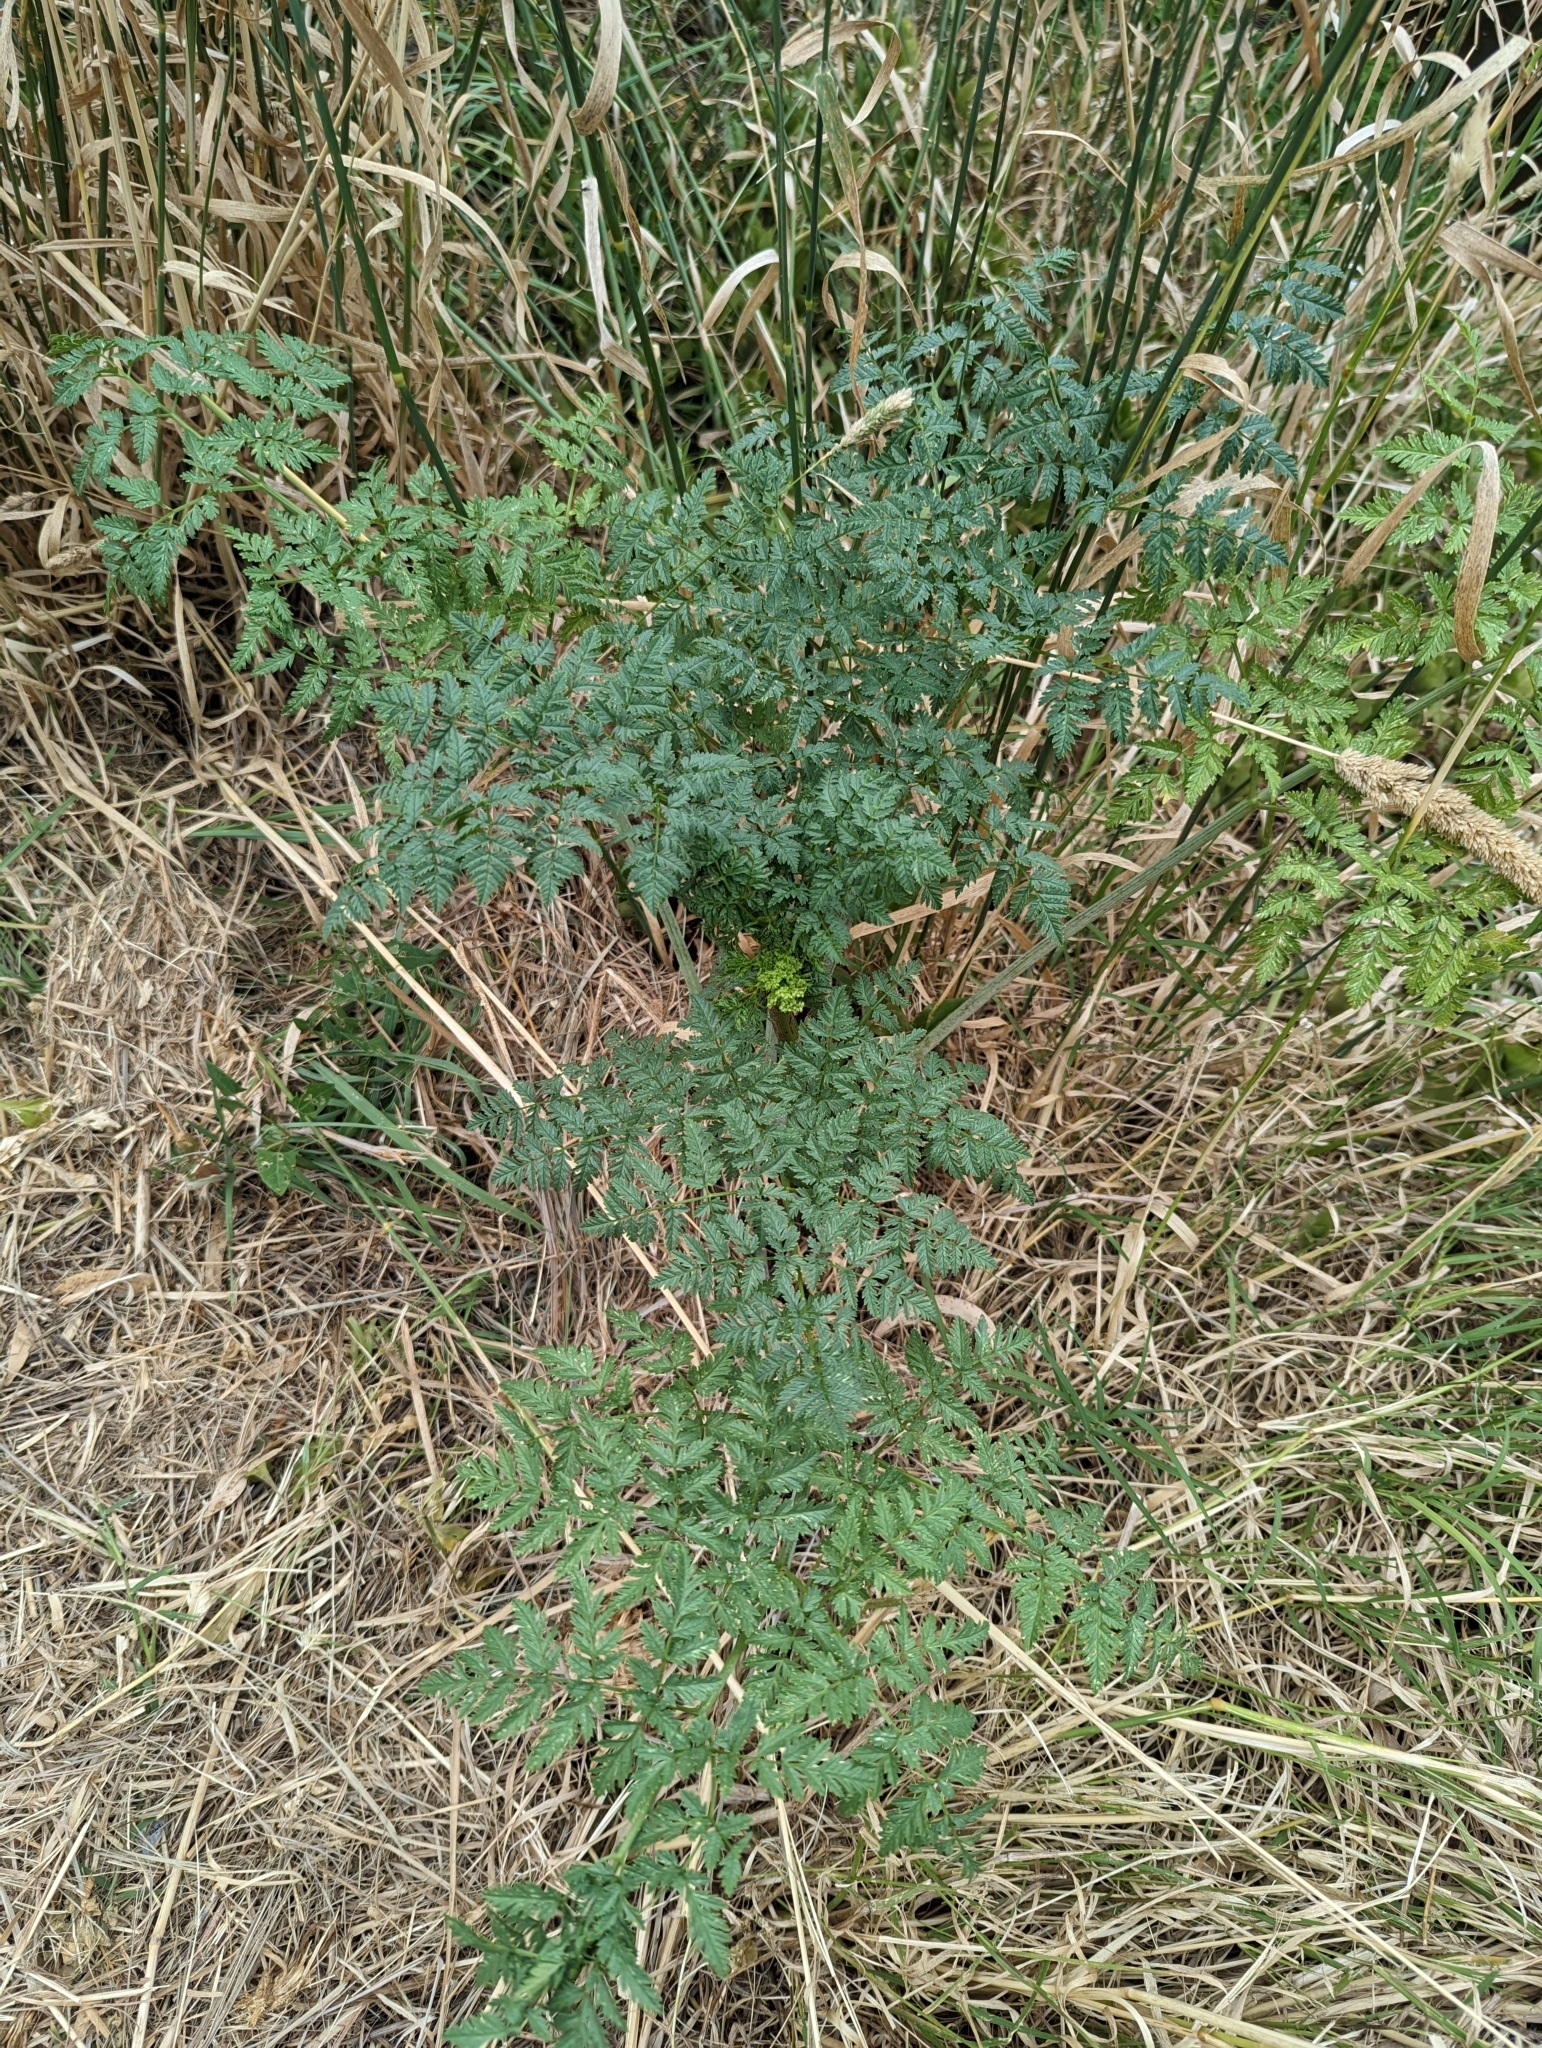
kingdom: Plantae
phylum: Tracheophyta
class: Magnoliopsida
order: Apiales
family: Apiaceae
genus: Conium
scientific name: Conium maculatum
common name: Hemlock
